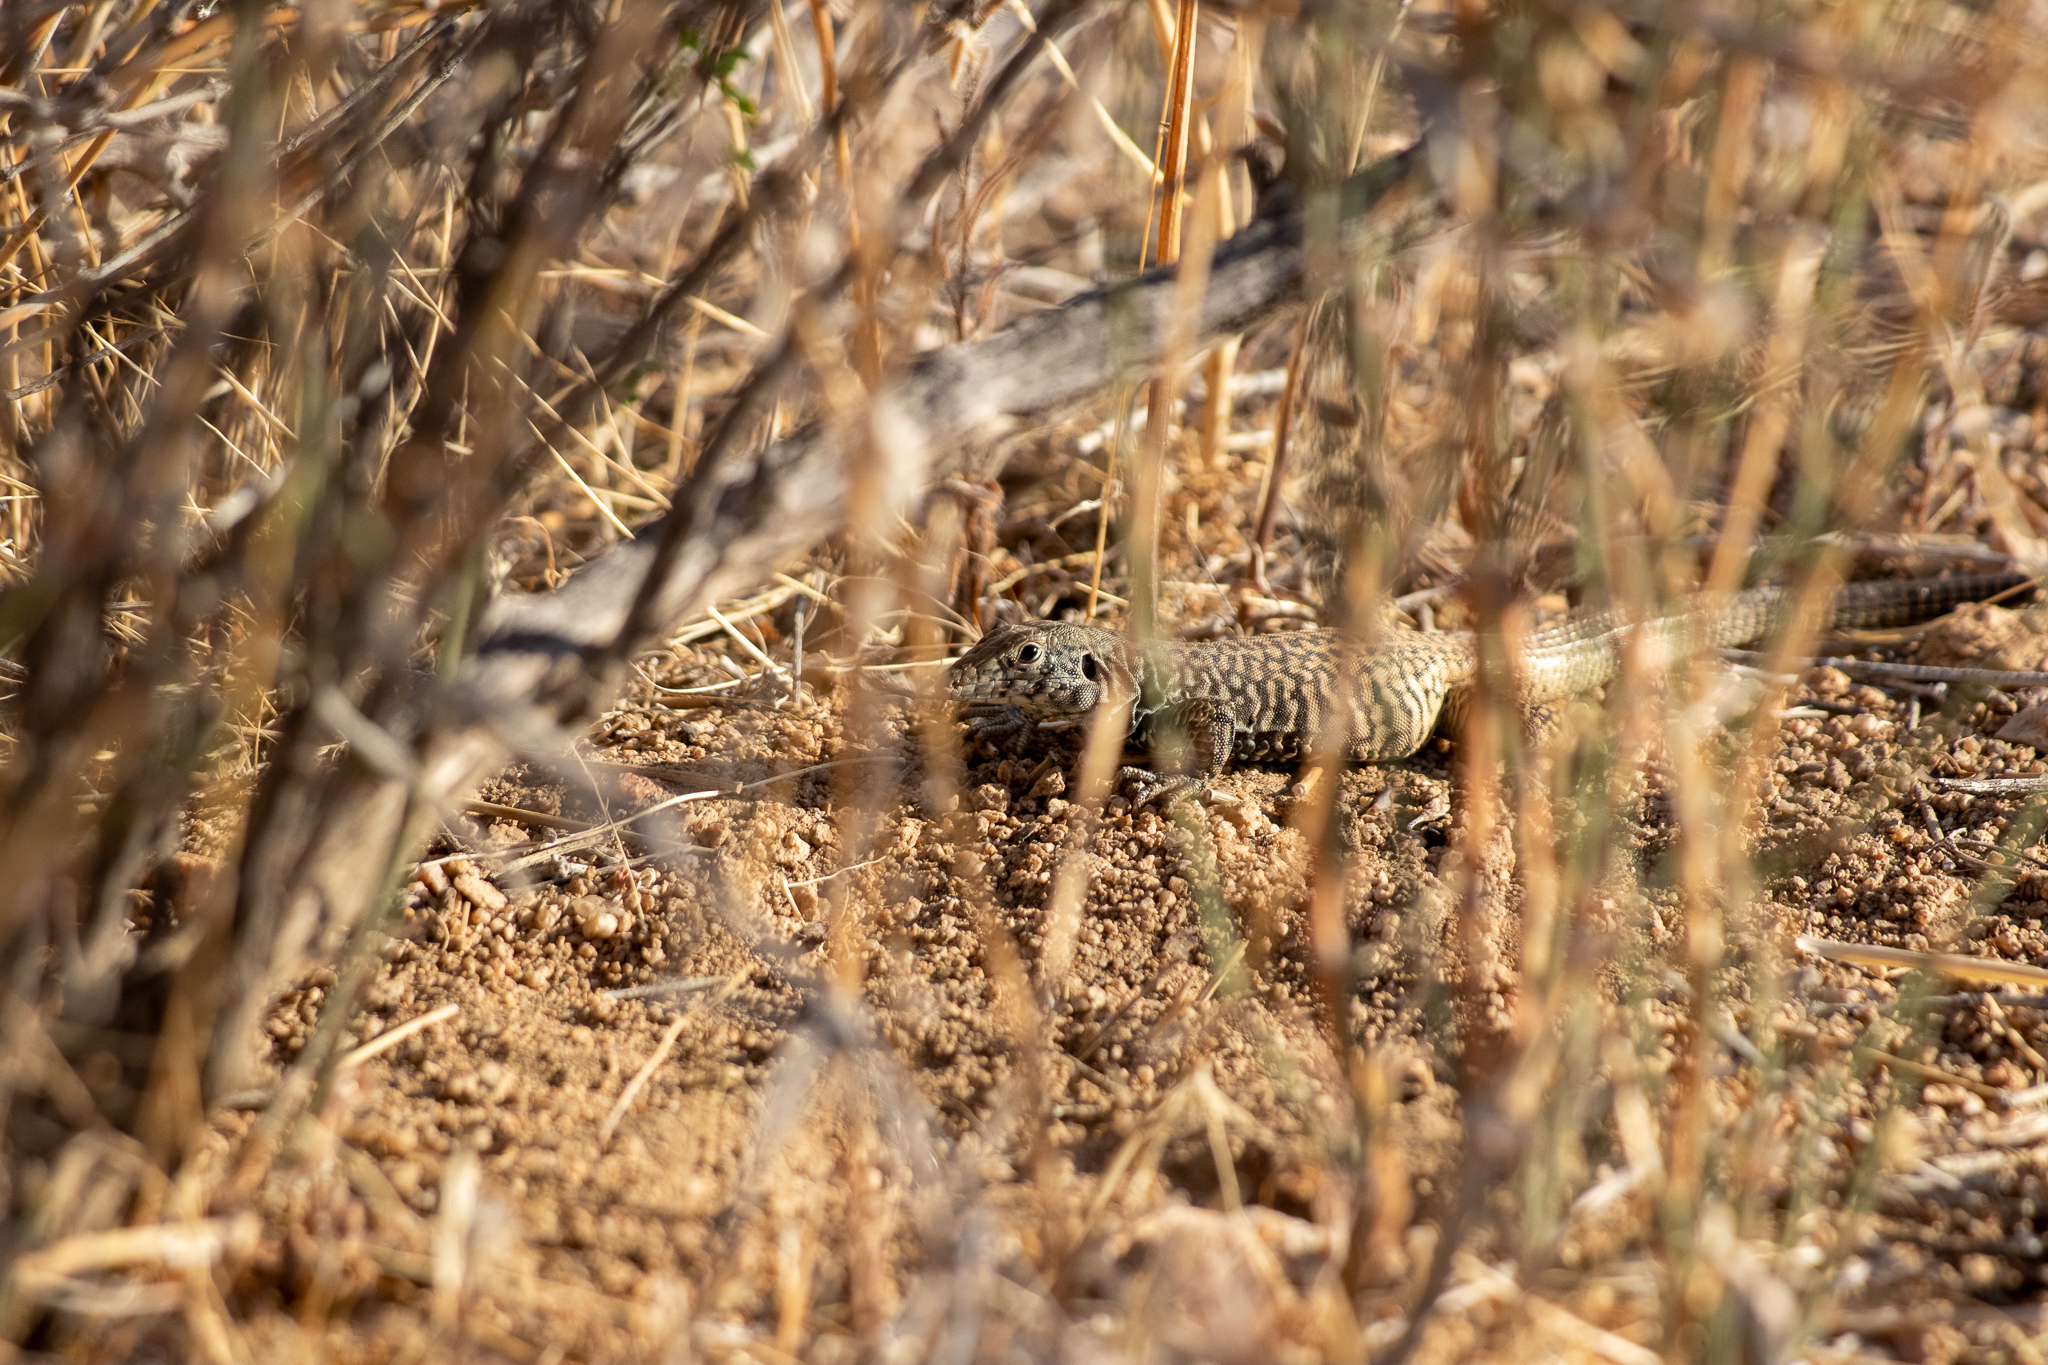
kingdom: Animalia
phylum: Chordata
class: Squamata
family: Teiidae
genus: Aspidoscelis
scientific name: Aspidoscelis tigris
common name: Tiger whiptail
